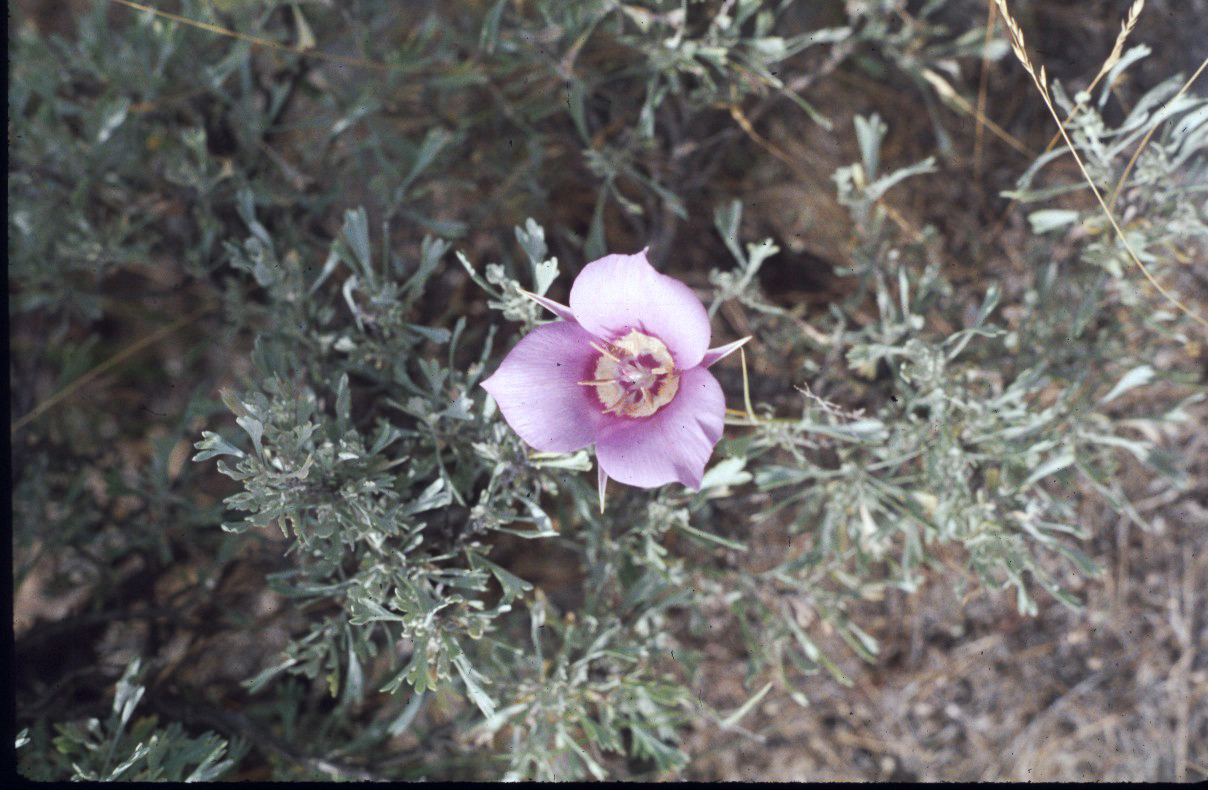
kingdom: Plantae
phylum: Tracheophyta
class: Liliopsida
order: Liliales
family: Liliaceae
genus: Calochortus
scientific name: Calochortus macrocarpus
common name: Green-band mariposa lily
